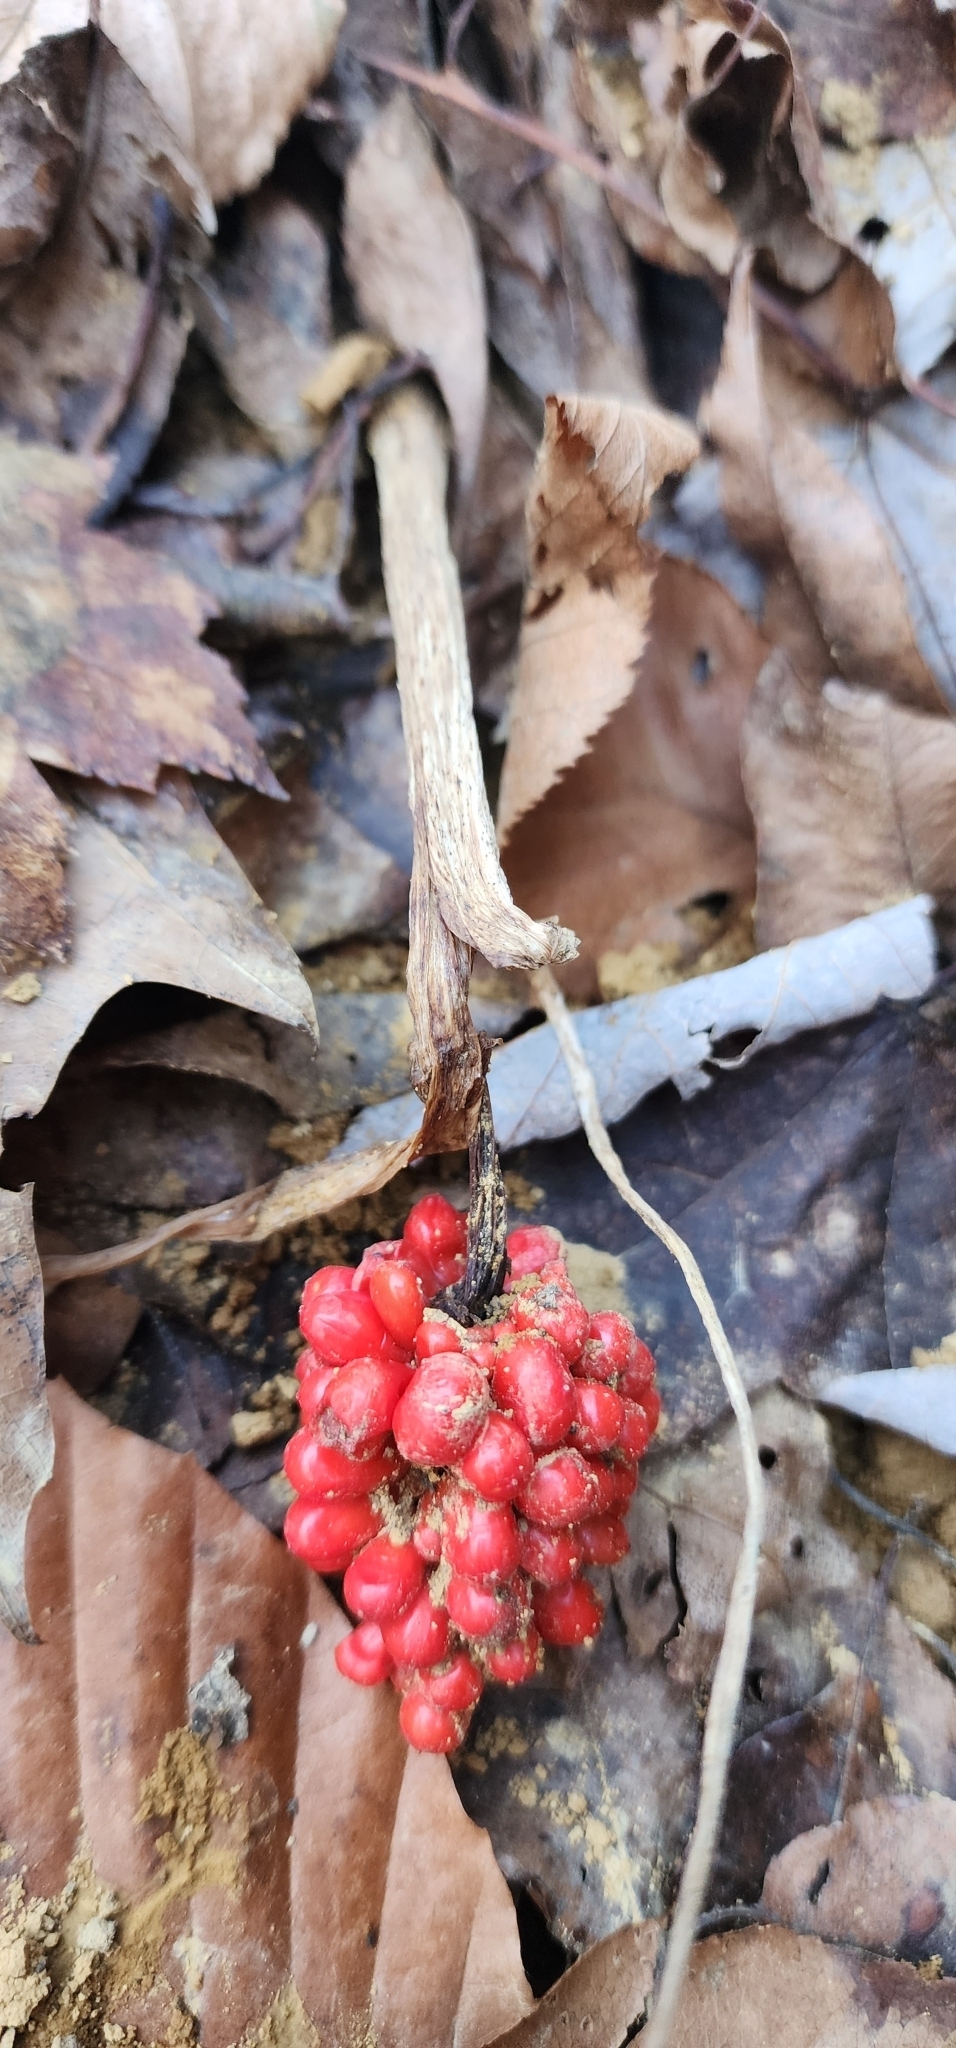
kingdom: Plantae
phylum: Tracheophyta
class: Liliopsida
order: Alismatales
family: Araceae
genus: Arisaema
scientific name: Arisaema triphyllum
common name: Jack-in-the-pulpit
